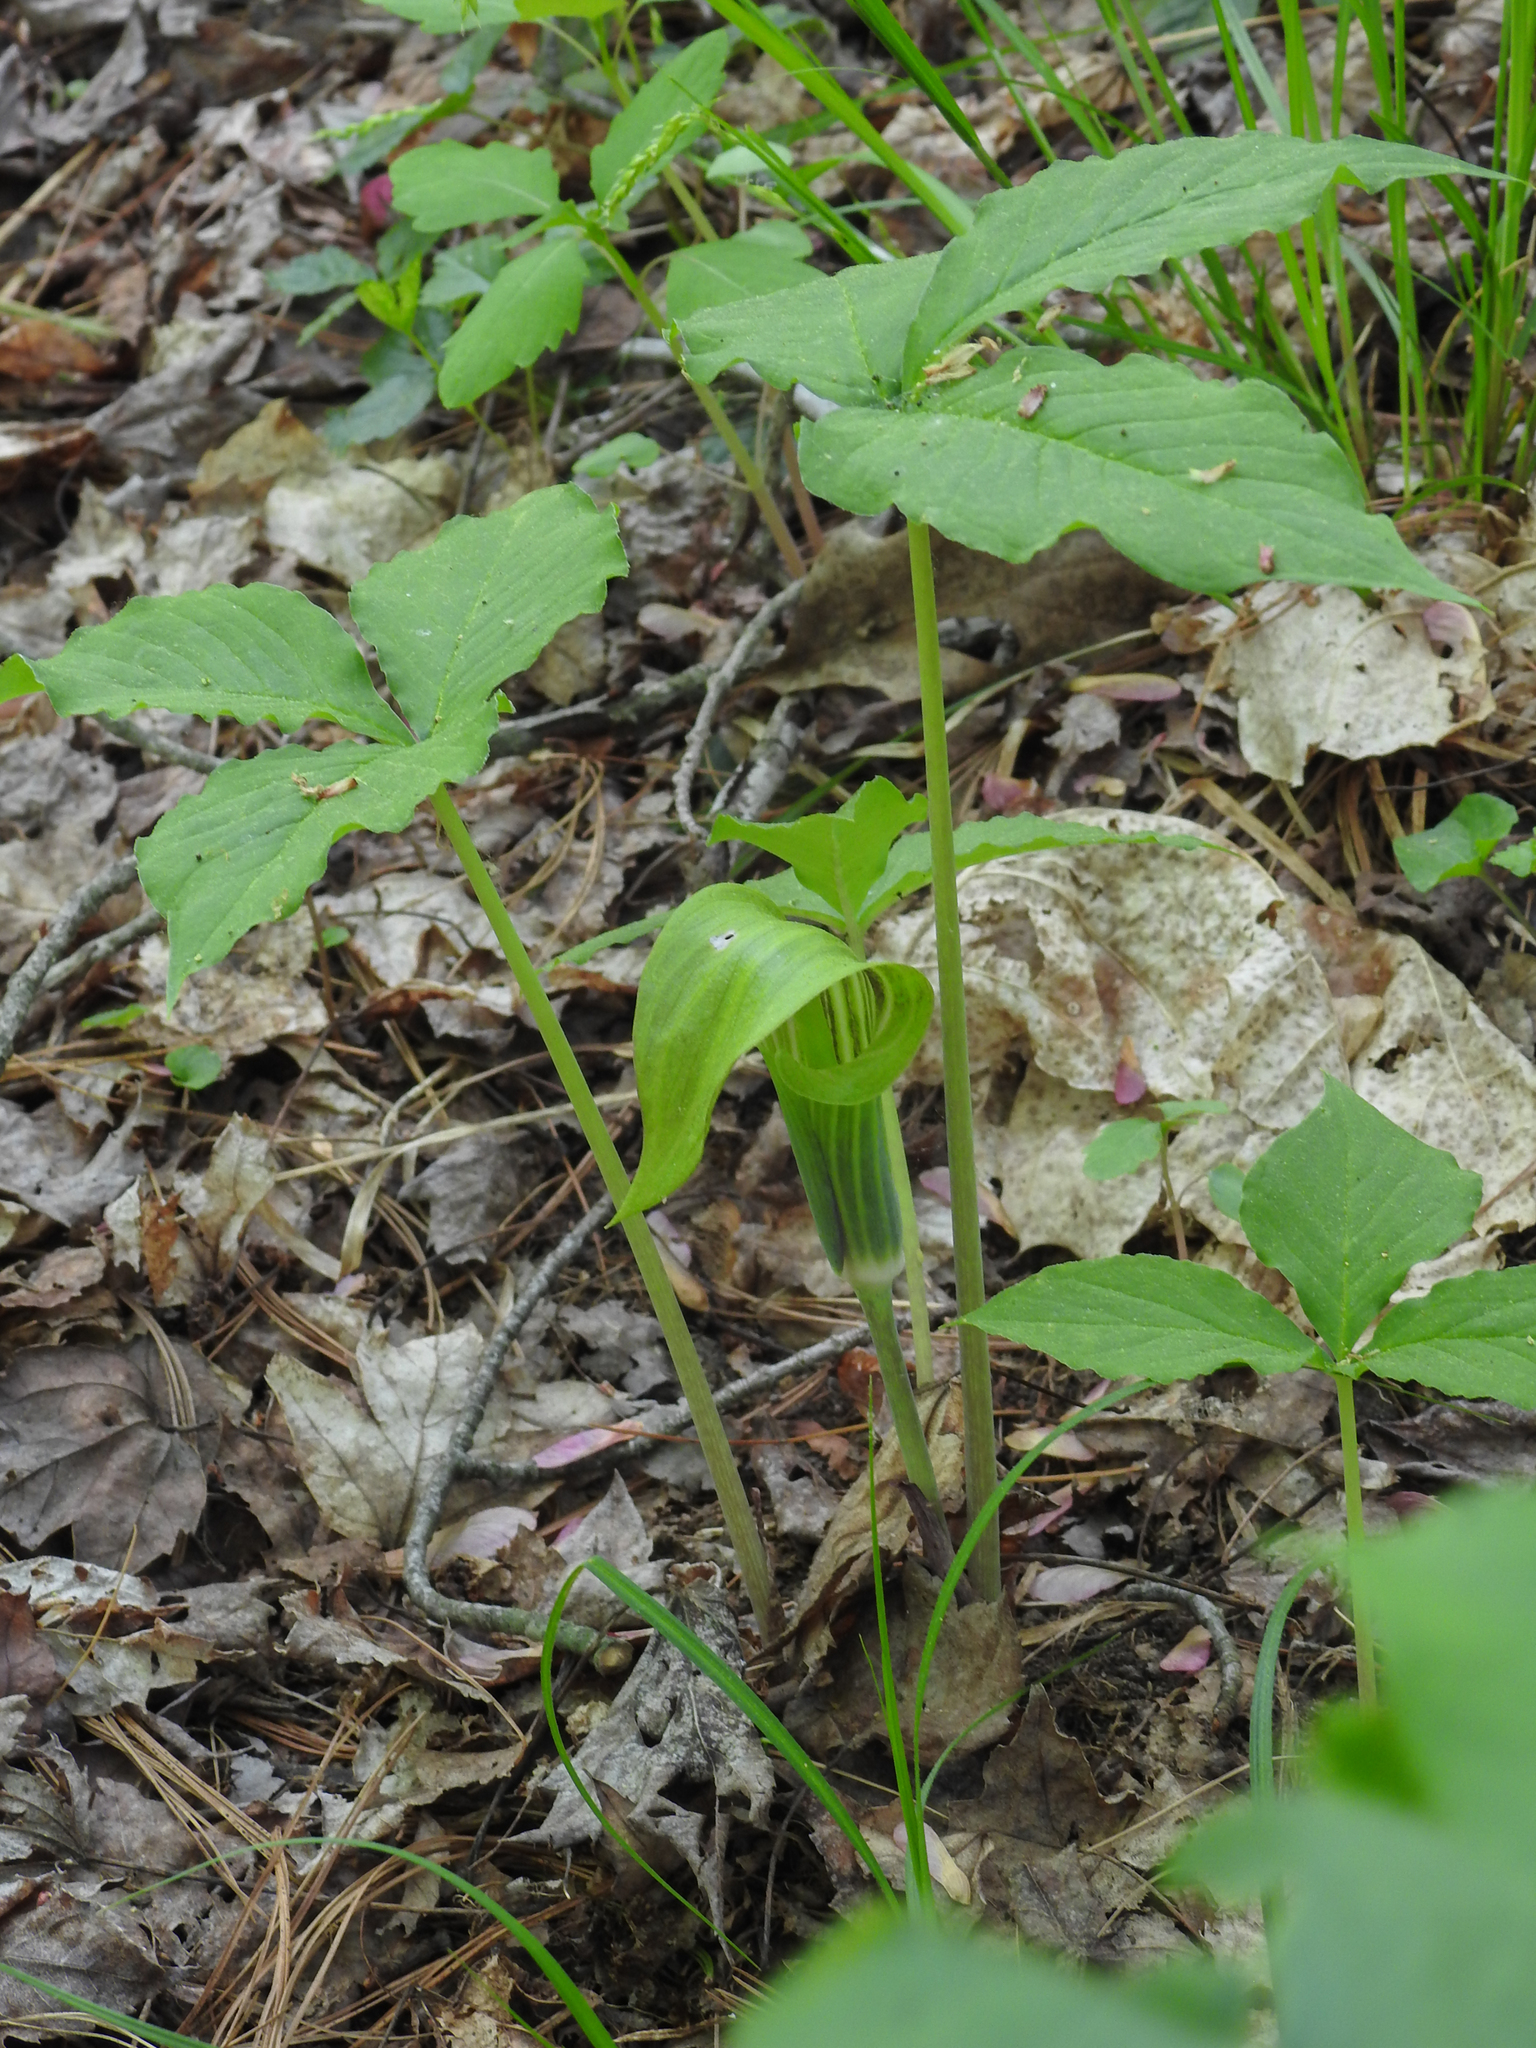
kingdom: Plantae
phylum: Tracheophyta
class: Liliopsida
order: Alismatales
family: Araceae
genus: Arisaema
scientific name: Arisaema triphyllum
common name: Jack-in-the-pulpit
